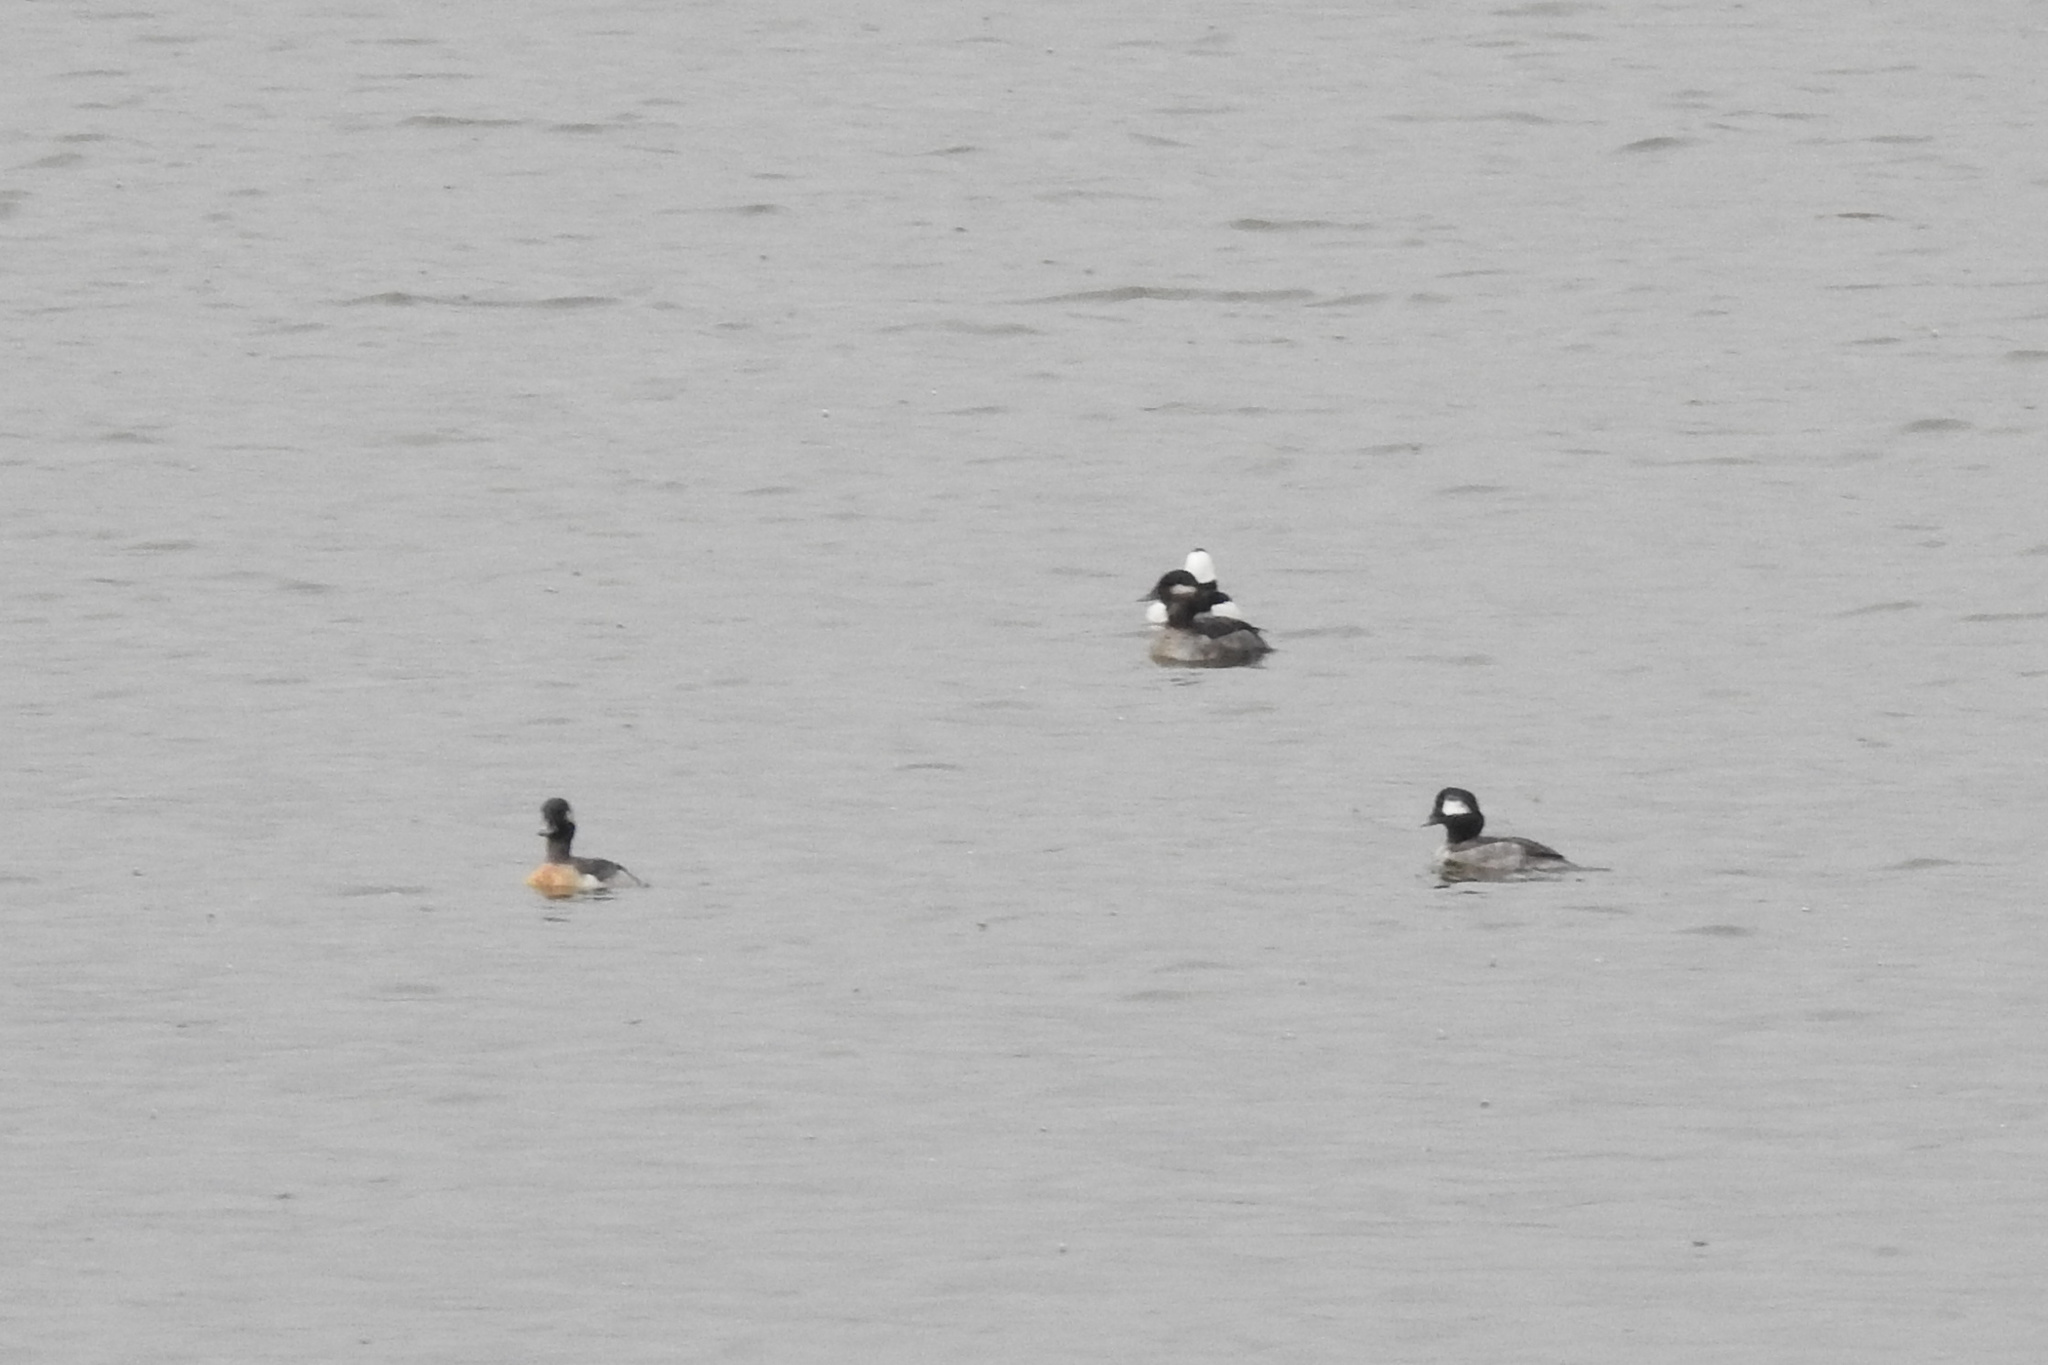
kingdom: Animalia
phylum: Chordata
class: Aves
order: Anseriformes
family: Anatidae
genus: Bucephala
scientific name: Bucephala albeola
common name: Bufflehead
